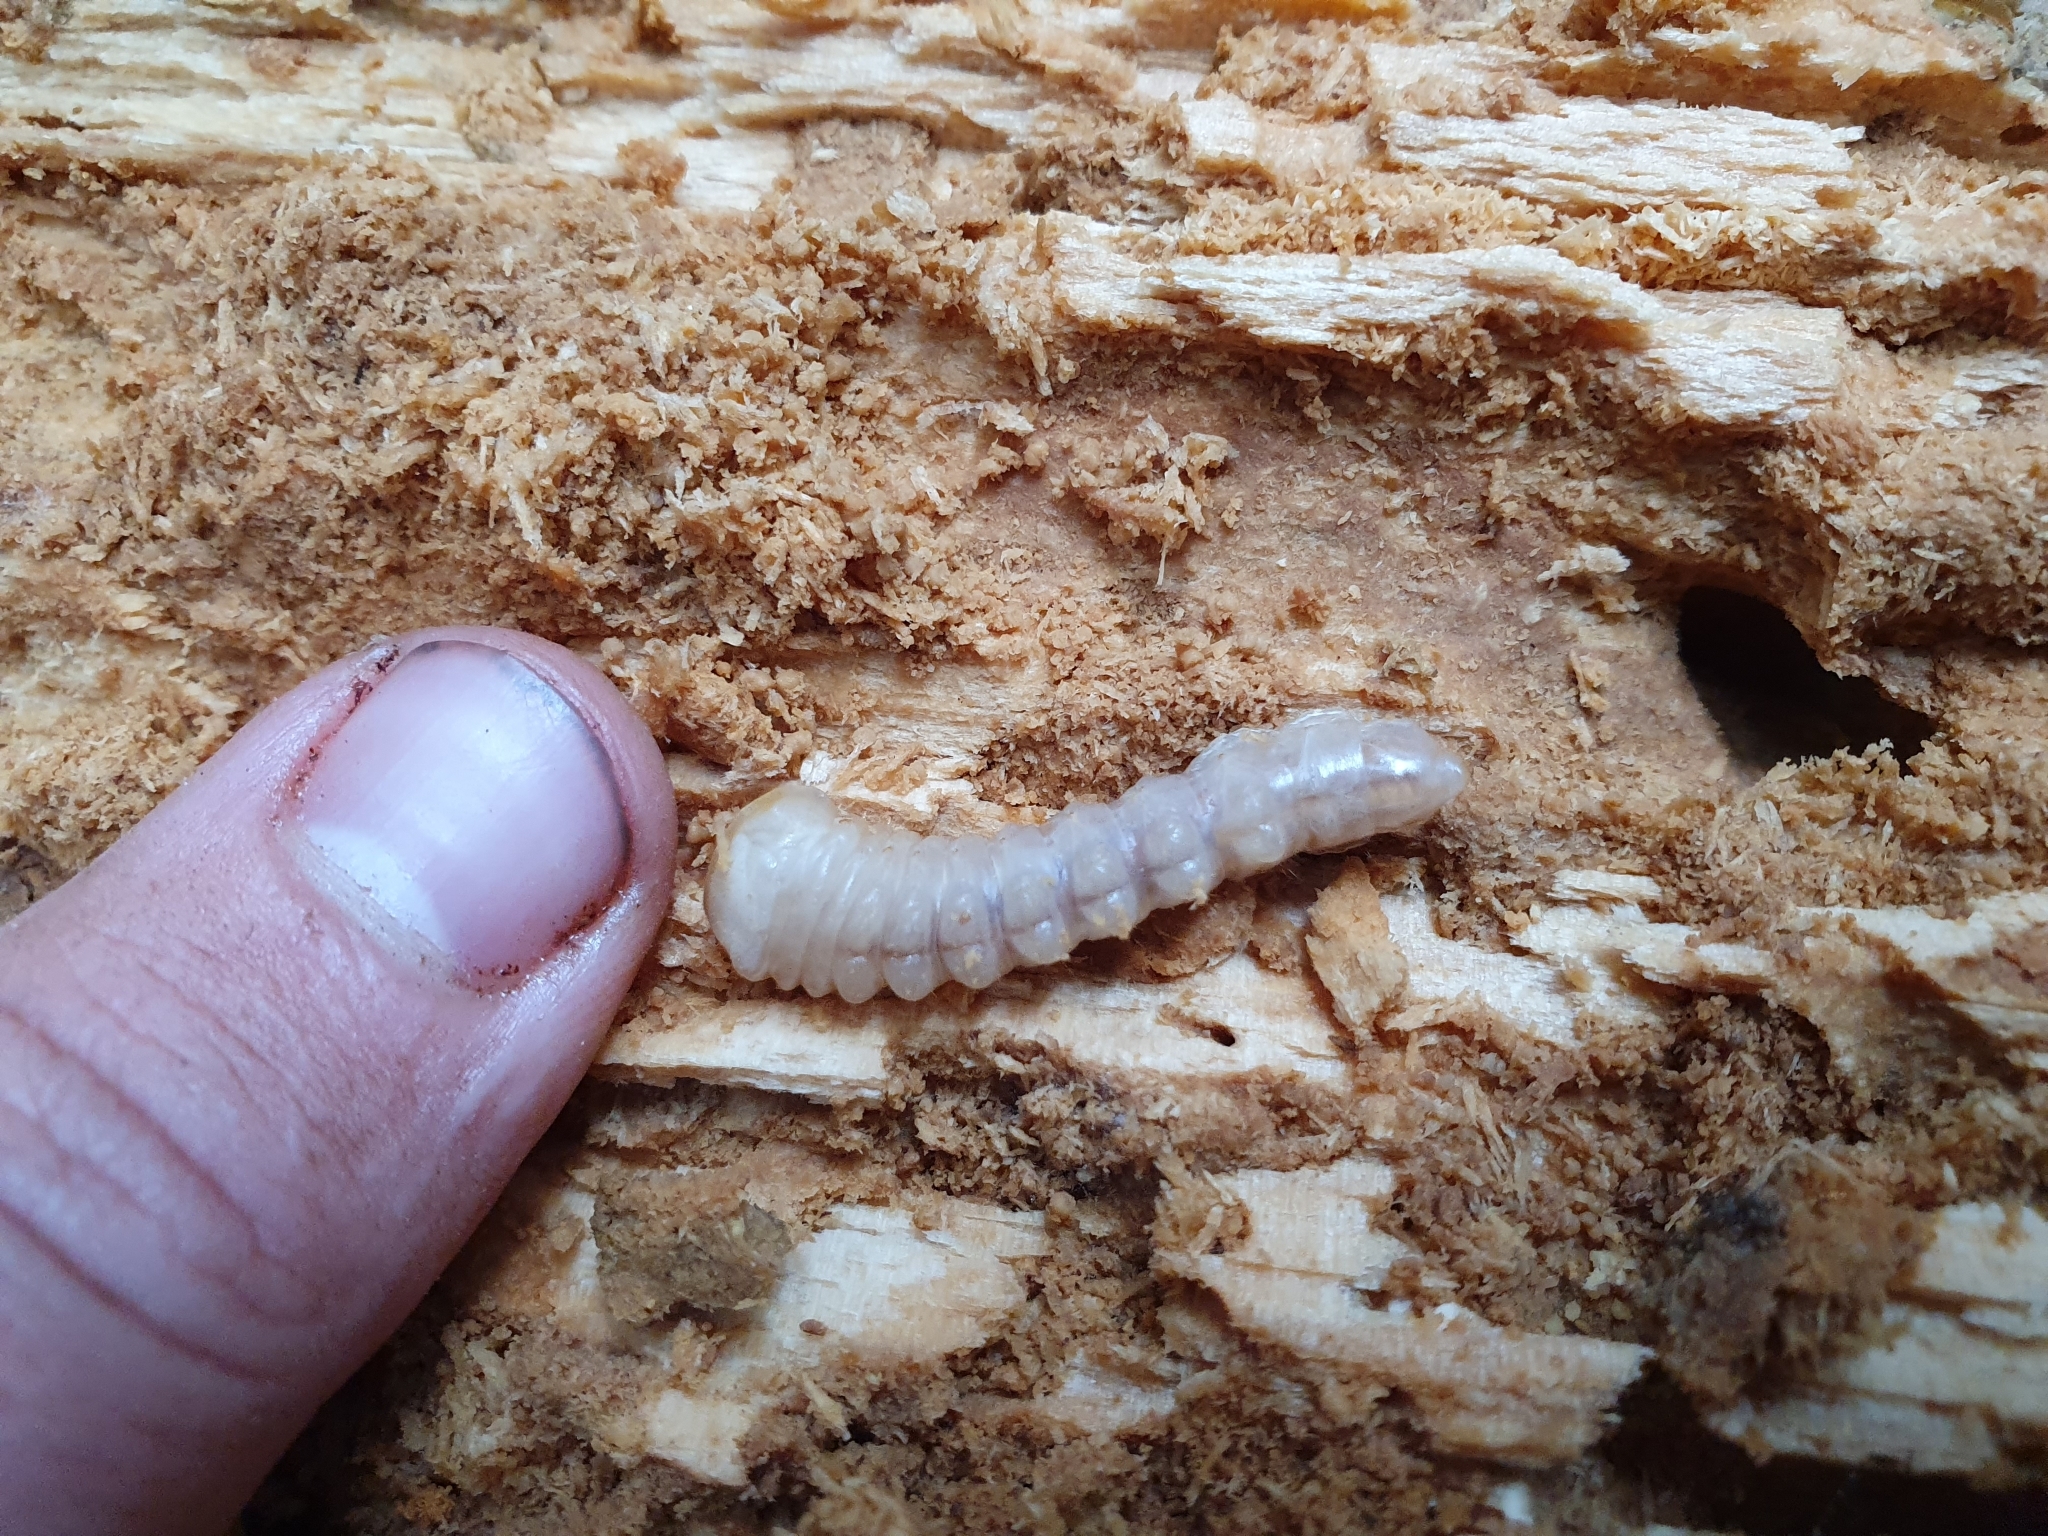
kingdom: Animalia
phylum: Arthropoda
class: Insecta
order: Coleoptera
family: Cerambycidae
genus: Prionoplus
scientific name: Prionoplus reticularis
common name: Huhu beetle
